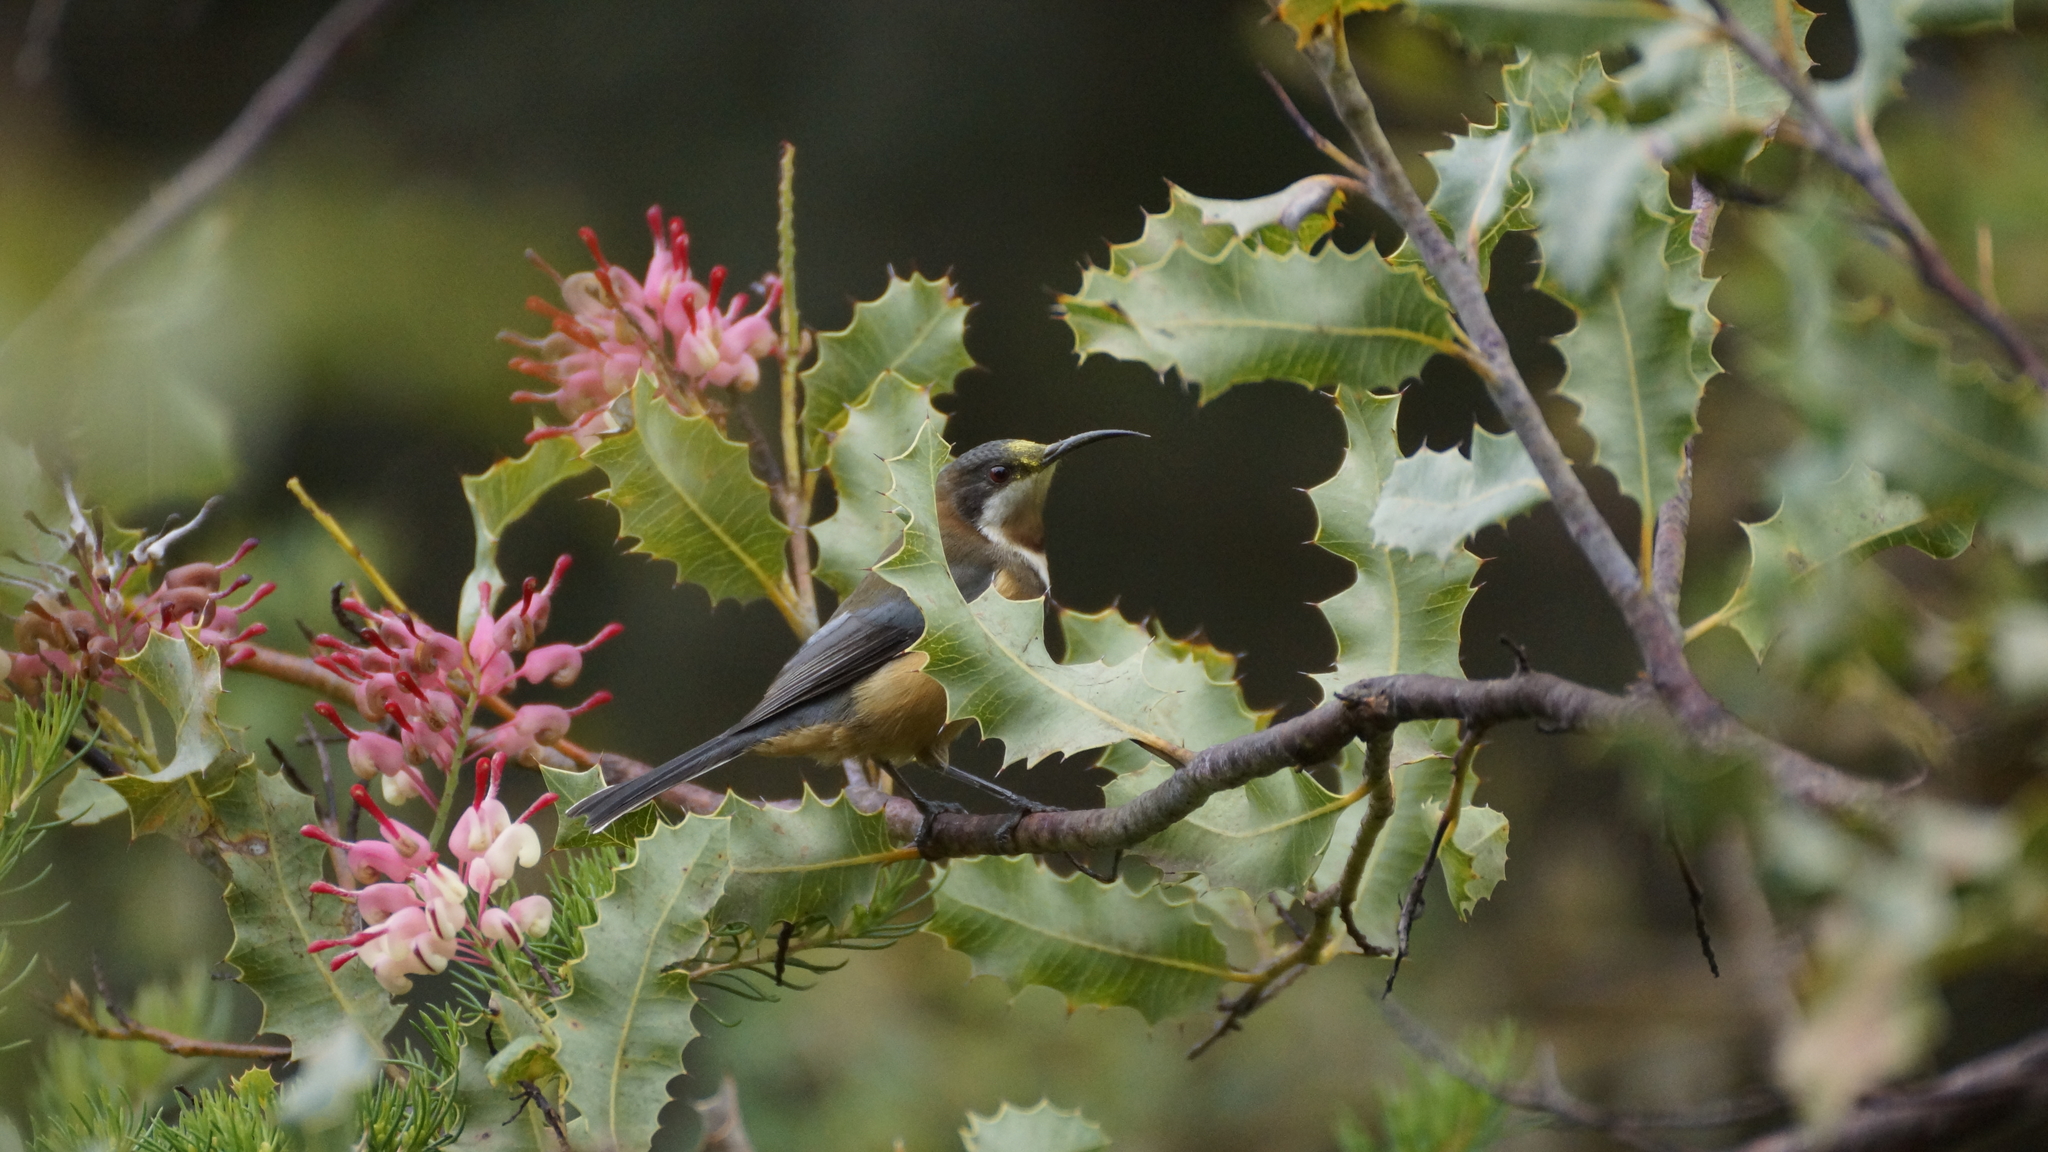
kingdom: Animalia
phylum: Chordata
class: Aves
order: Passeriformes
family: Meliphagidae
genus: Acanthorhynchus
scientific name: Acanthorhynchus tenuirostris
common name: Eastern spinebill
